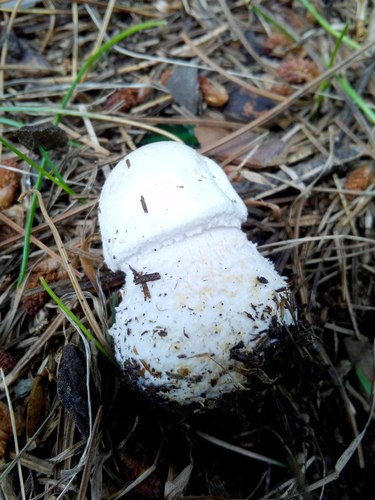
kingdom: Fungi
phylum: Basidiomycota
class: Agaricomycetes
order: Agaricales
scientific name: Agaricales
